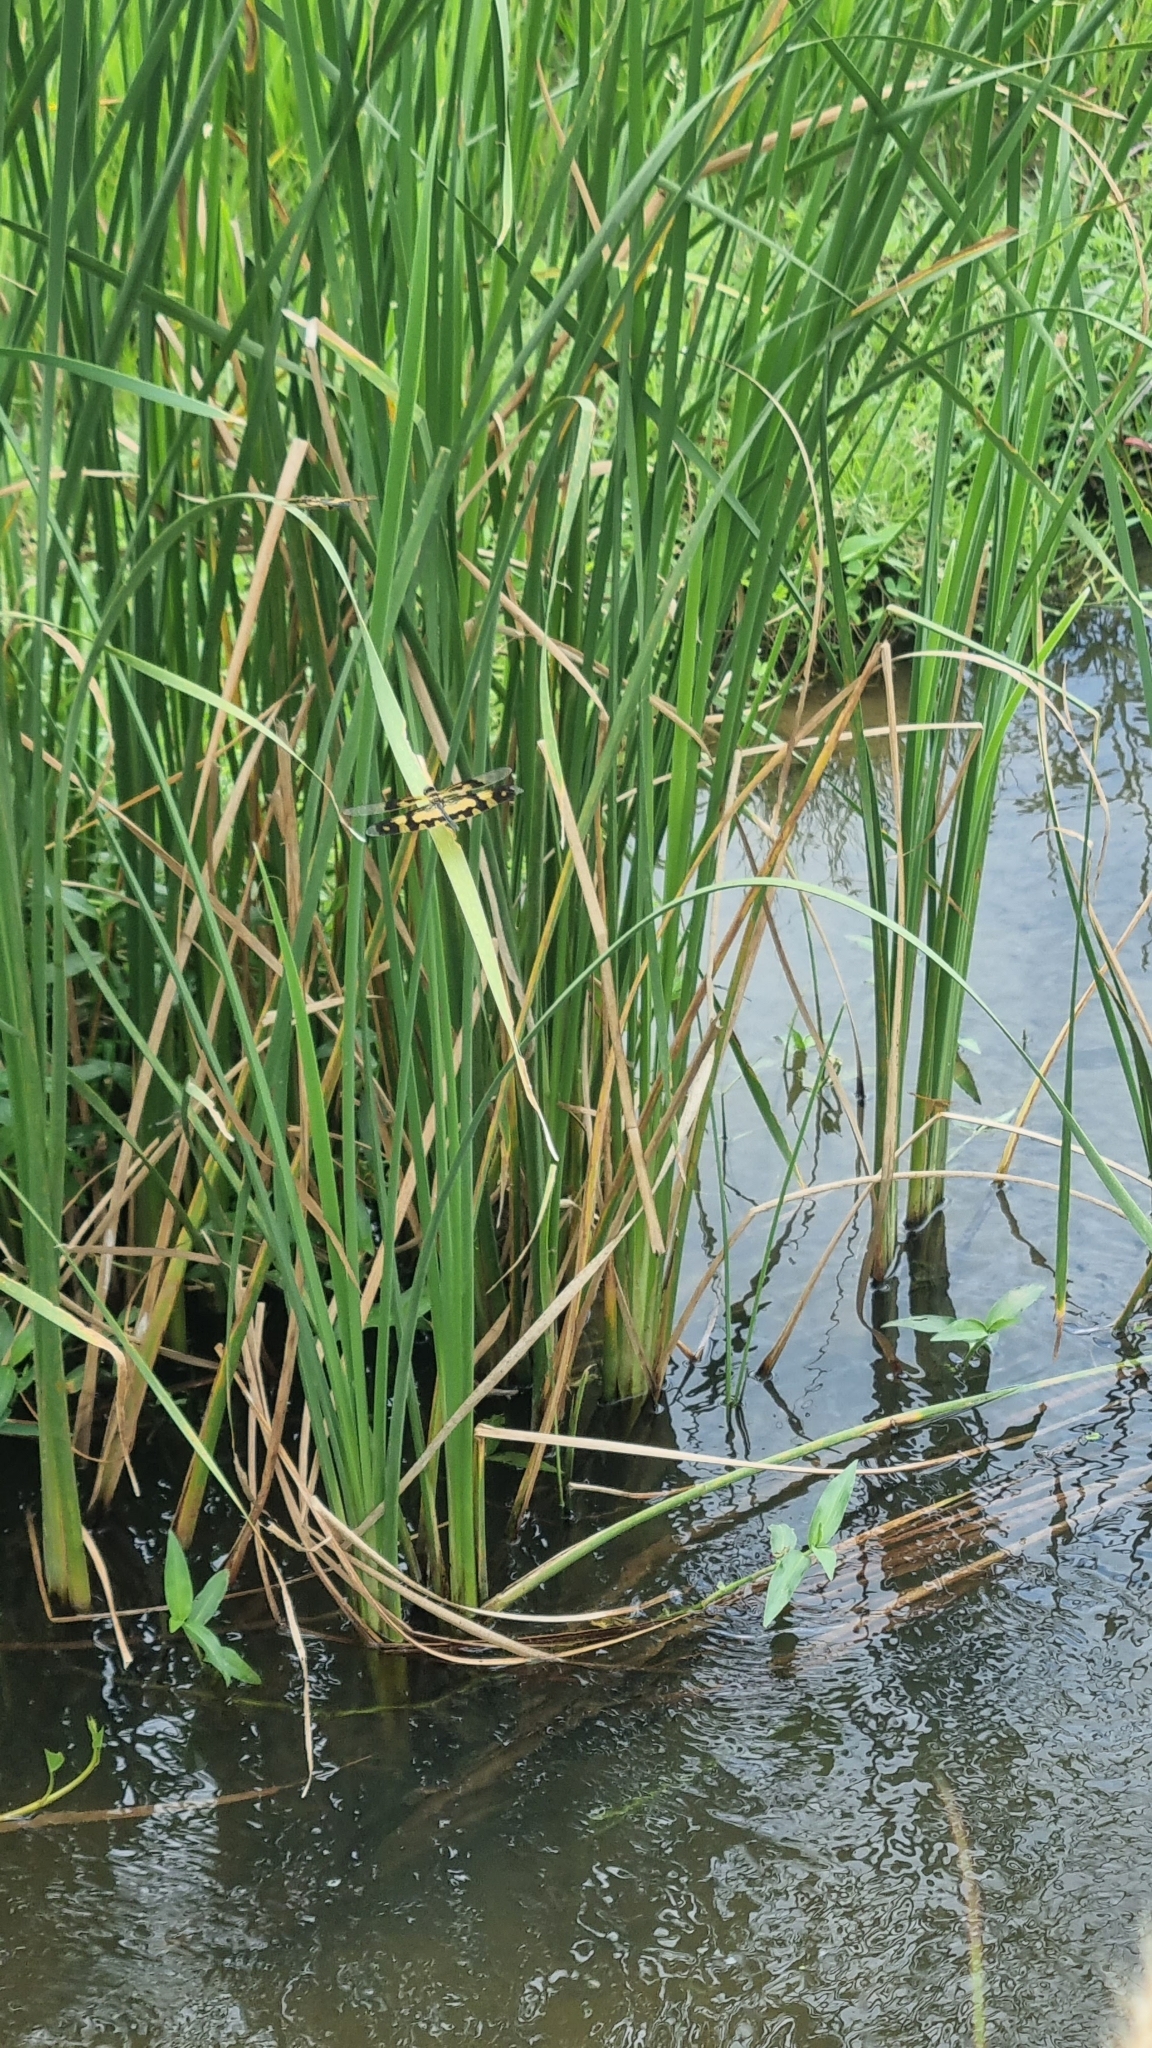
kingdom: Animalia
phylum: Arthropoda
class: Insecta
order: Odonata
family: Libellulidae
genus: Rhyothemis
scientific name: Rhyothemis variegata
